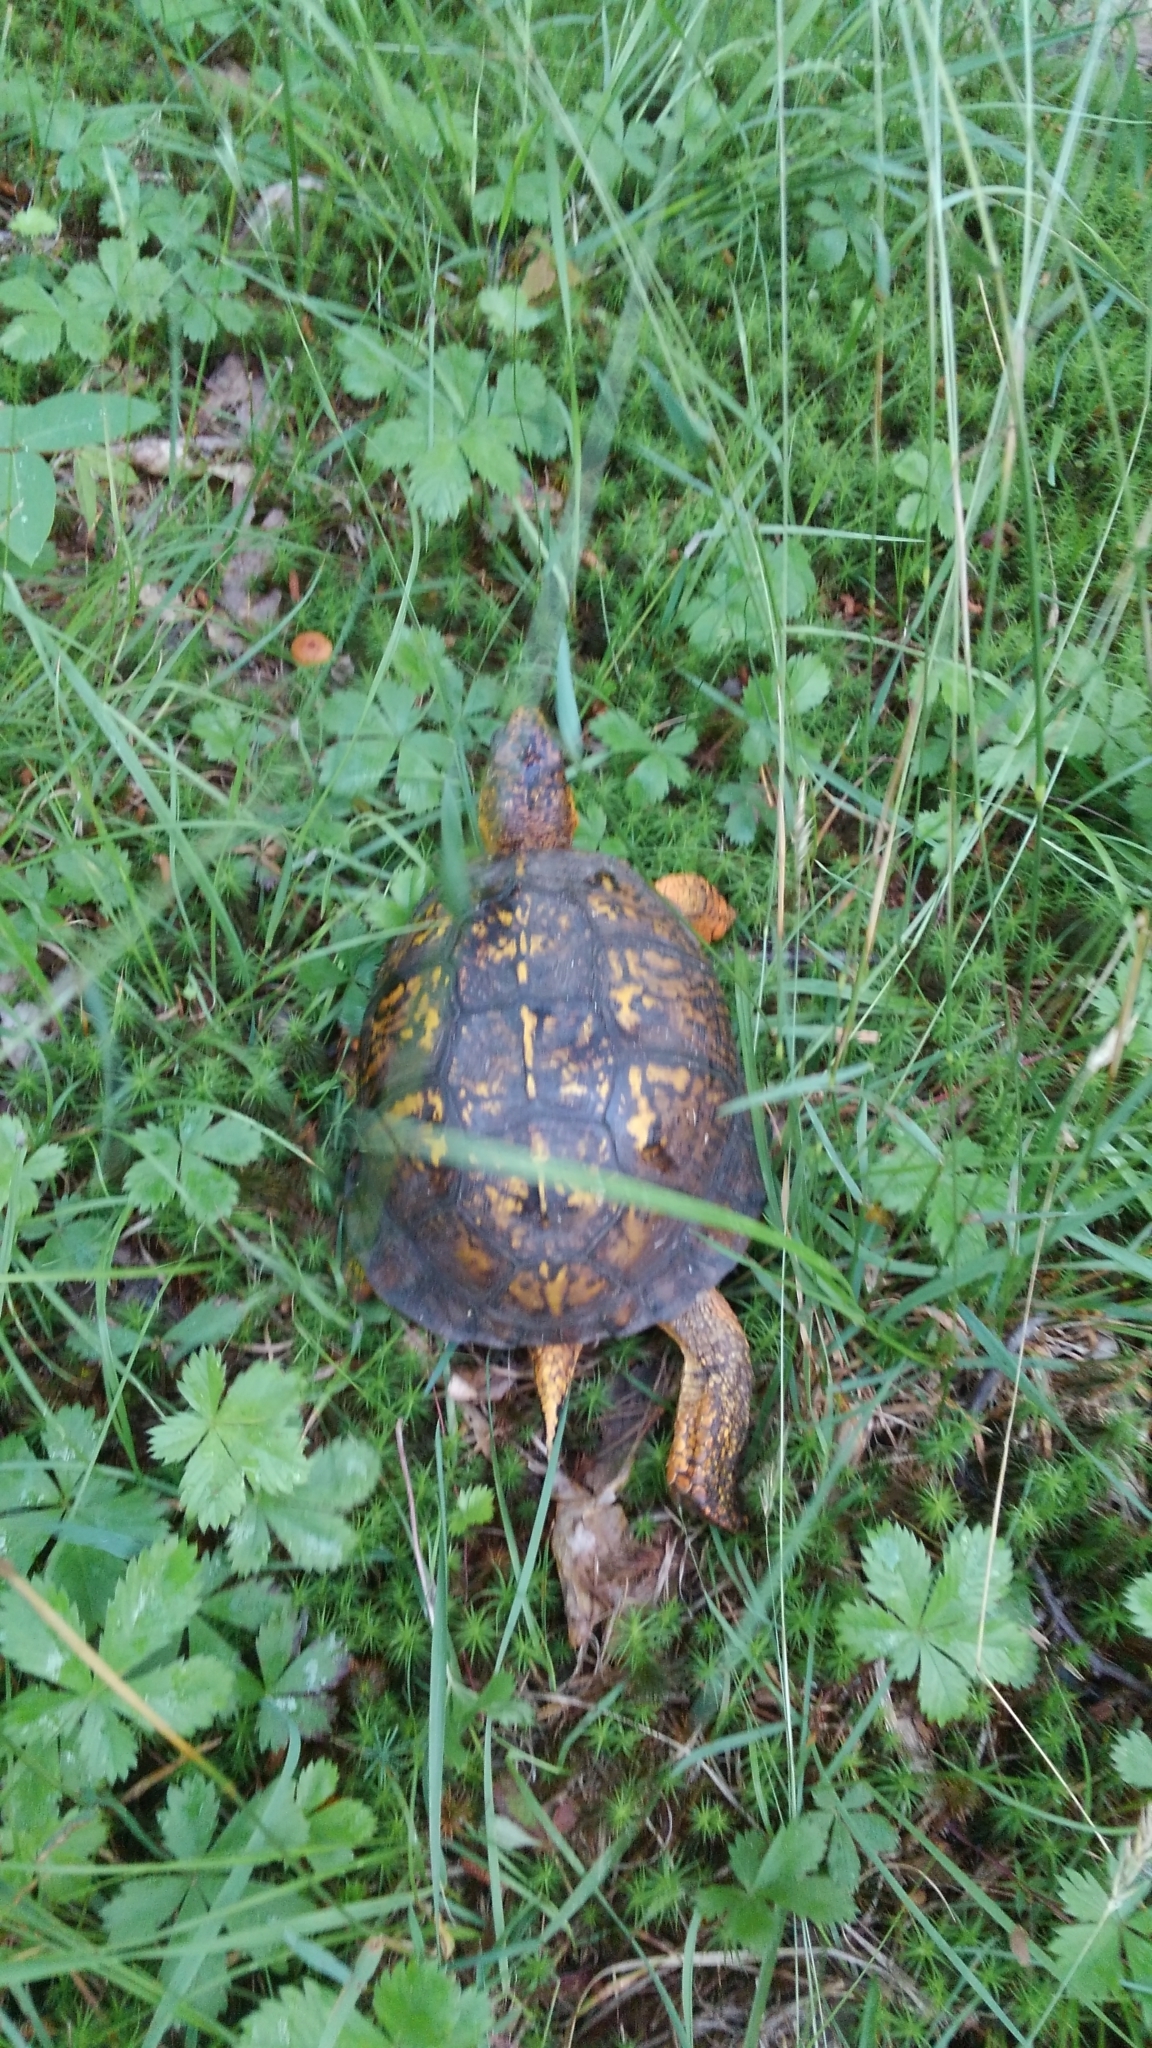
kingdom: Animalia
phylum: Chordata
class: Testudines
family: Emydidae
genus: Terrapene
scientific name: Terrapene carolina
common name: Common box turtle
